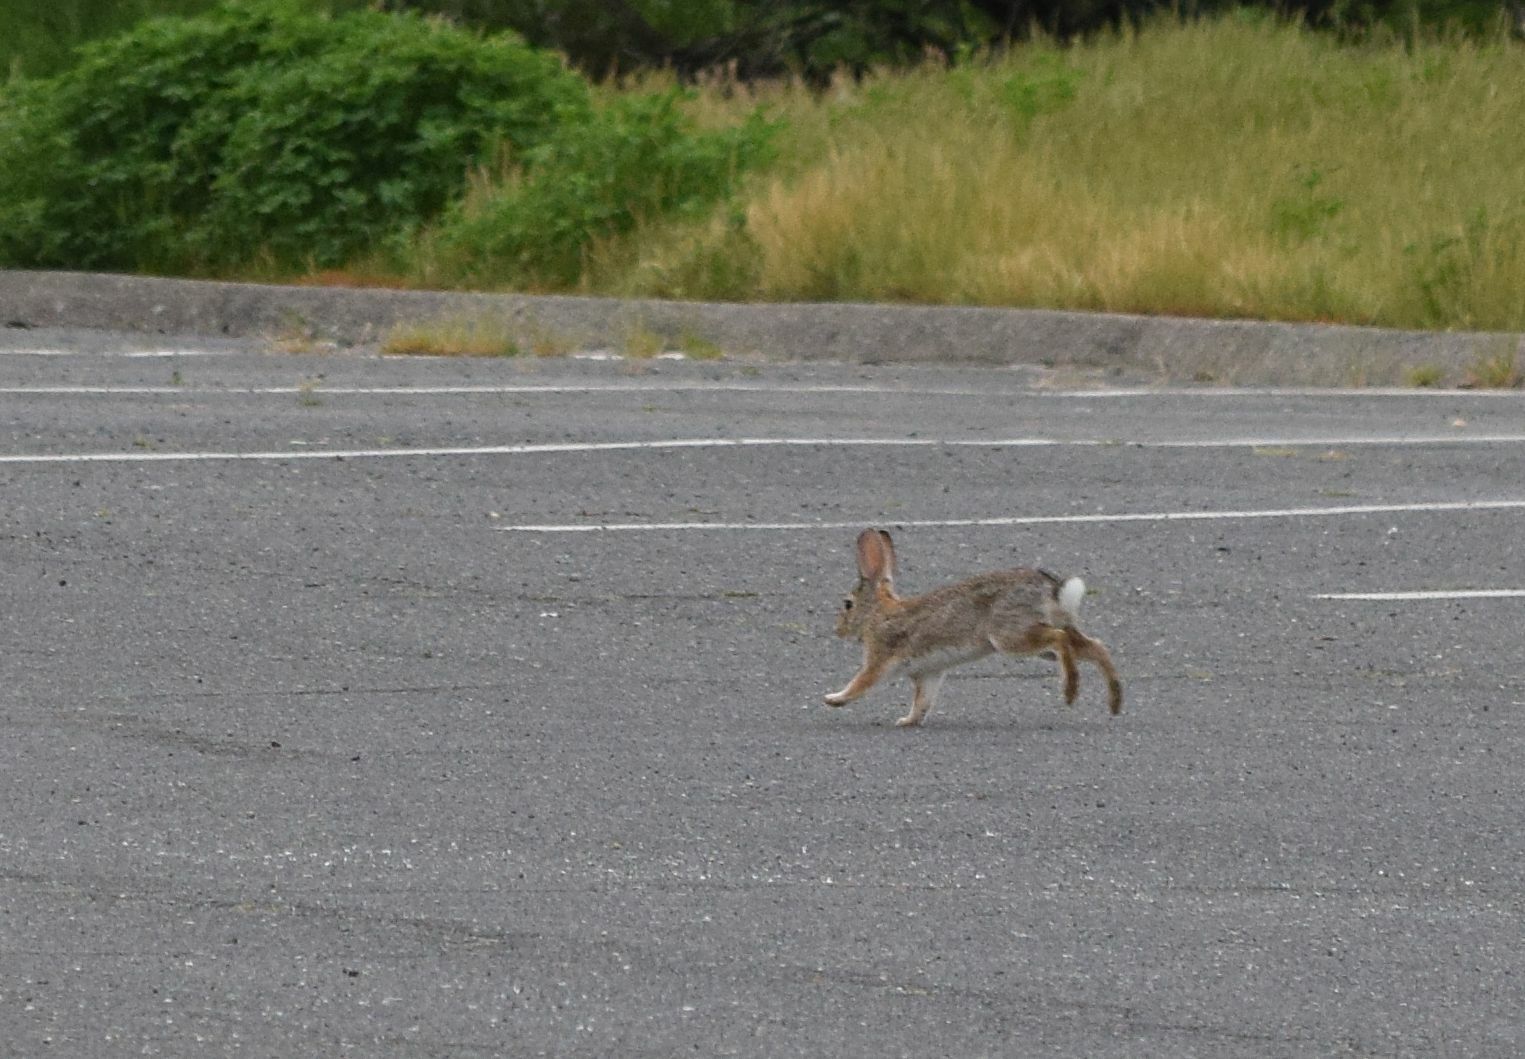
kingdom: Animalia
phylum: Chordata
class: Mammalia
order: Lagomorpha
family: Leporidae
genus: Sylvilagus
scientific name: Sylvilagus audubonii
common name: Desert cottontail
